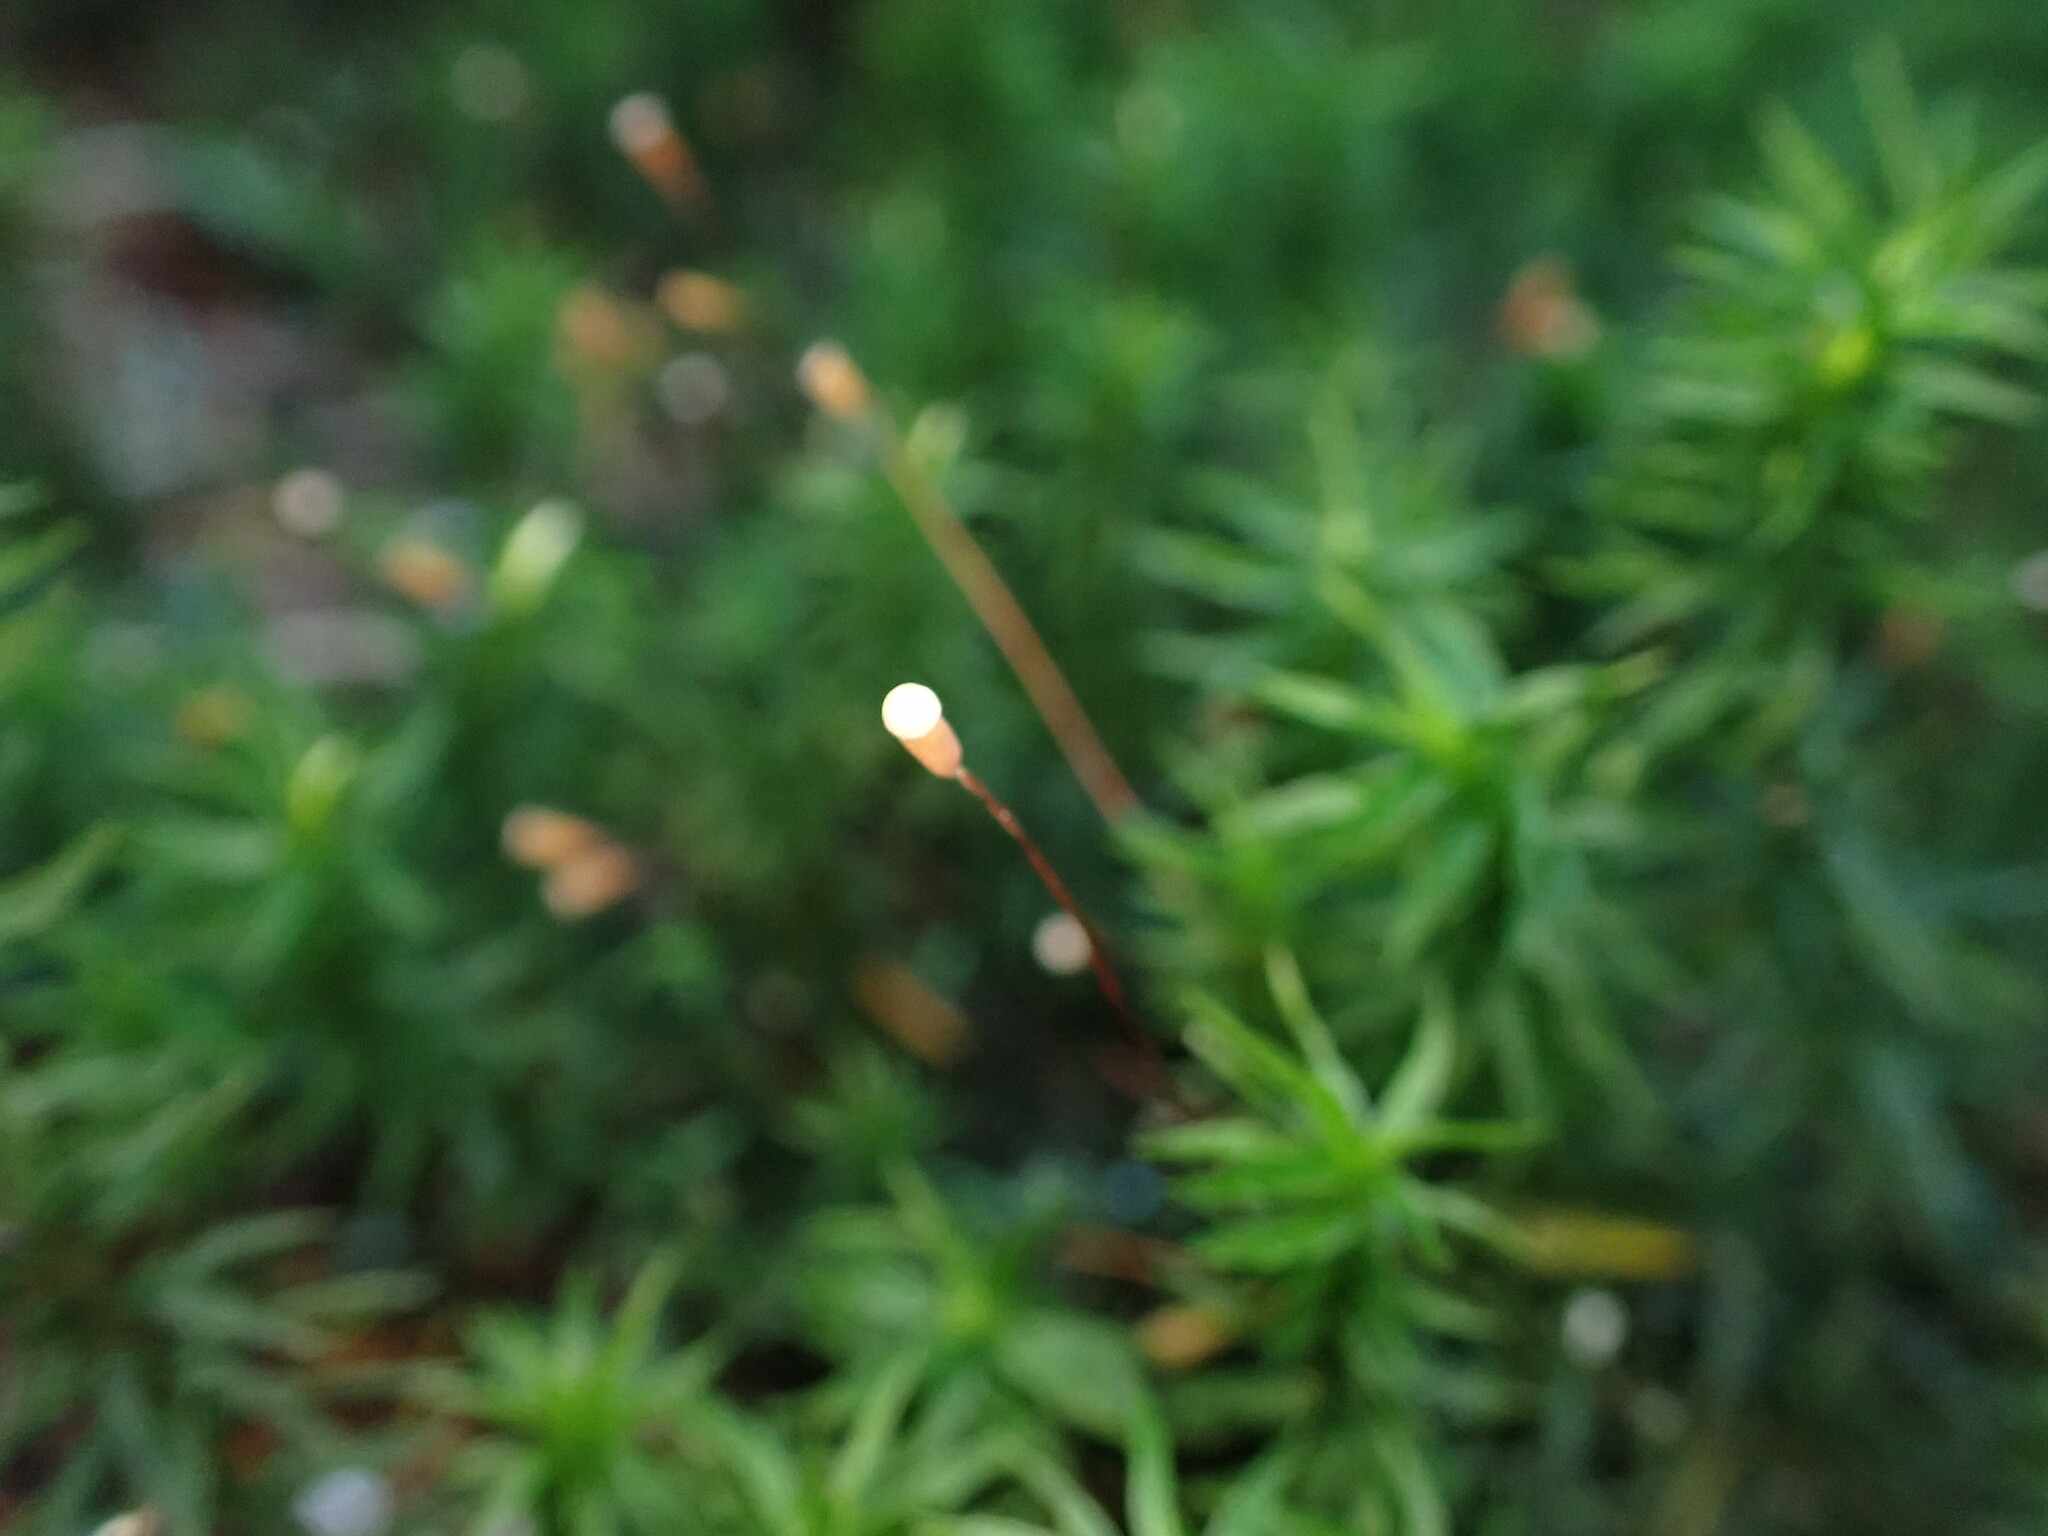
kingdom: Plantae
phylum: Bryophyta
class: Polytrichopsida
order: Polytrichales
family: Polytrichaceae
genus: Pogonatum
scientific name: Pogonatum contortum
